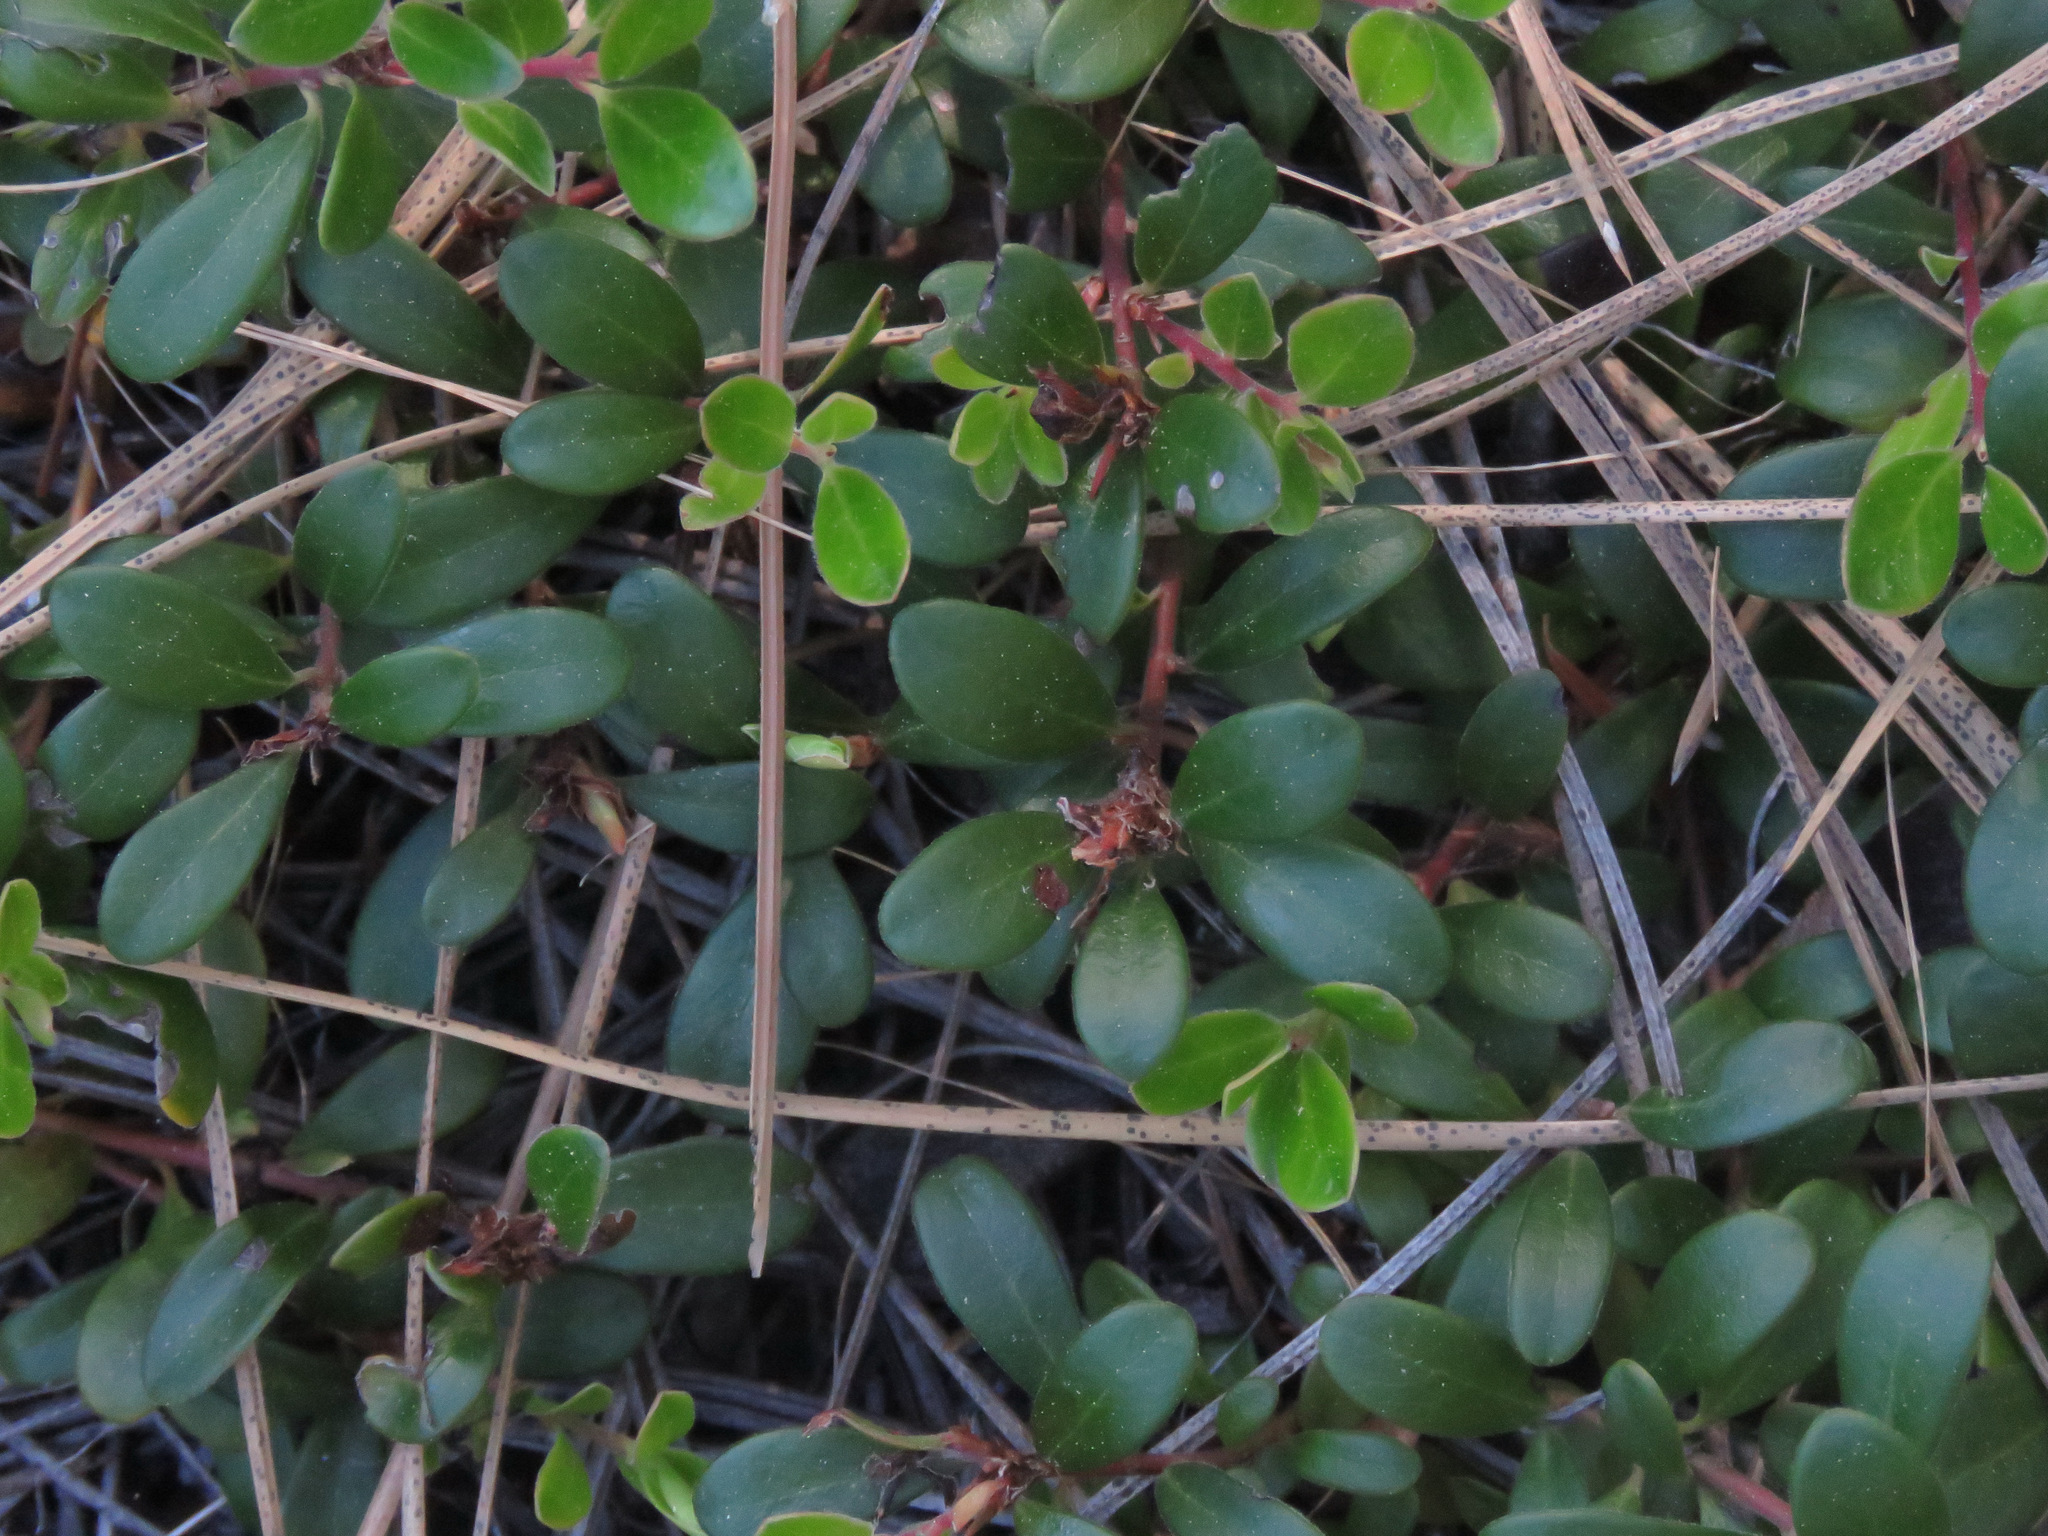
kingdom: Plantae
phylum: Tracheophyta
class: Magnoliopsida
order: Ericales
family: Ericaceae
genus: Arctostaphylos
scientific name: Arctostaphylos uva-ursi
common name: Bearberry
